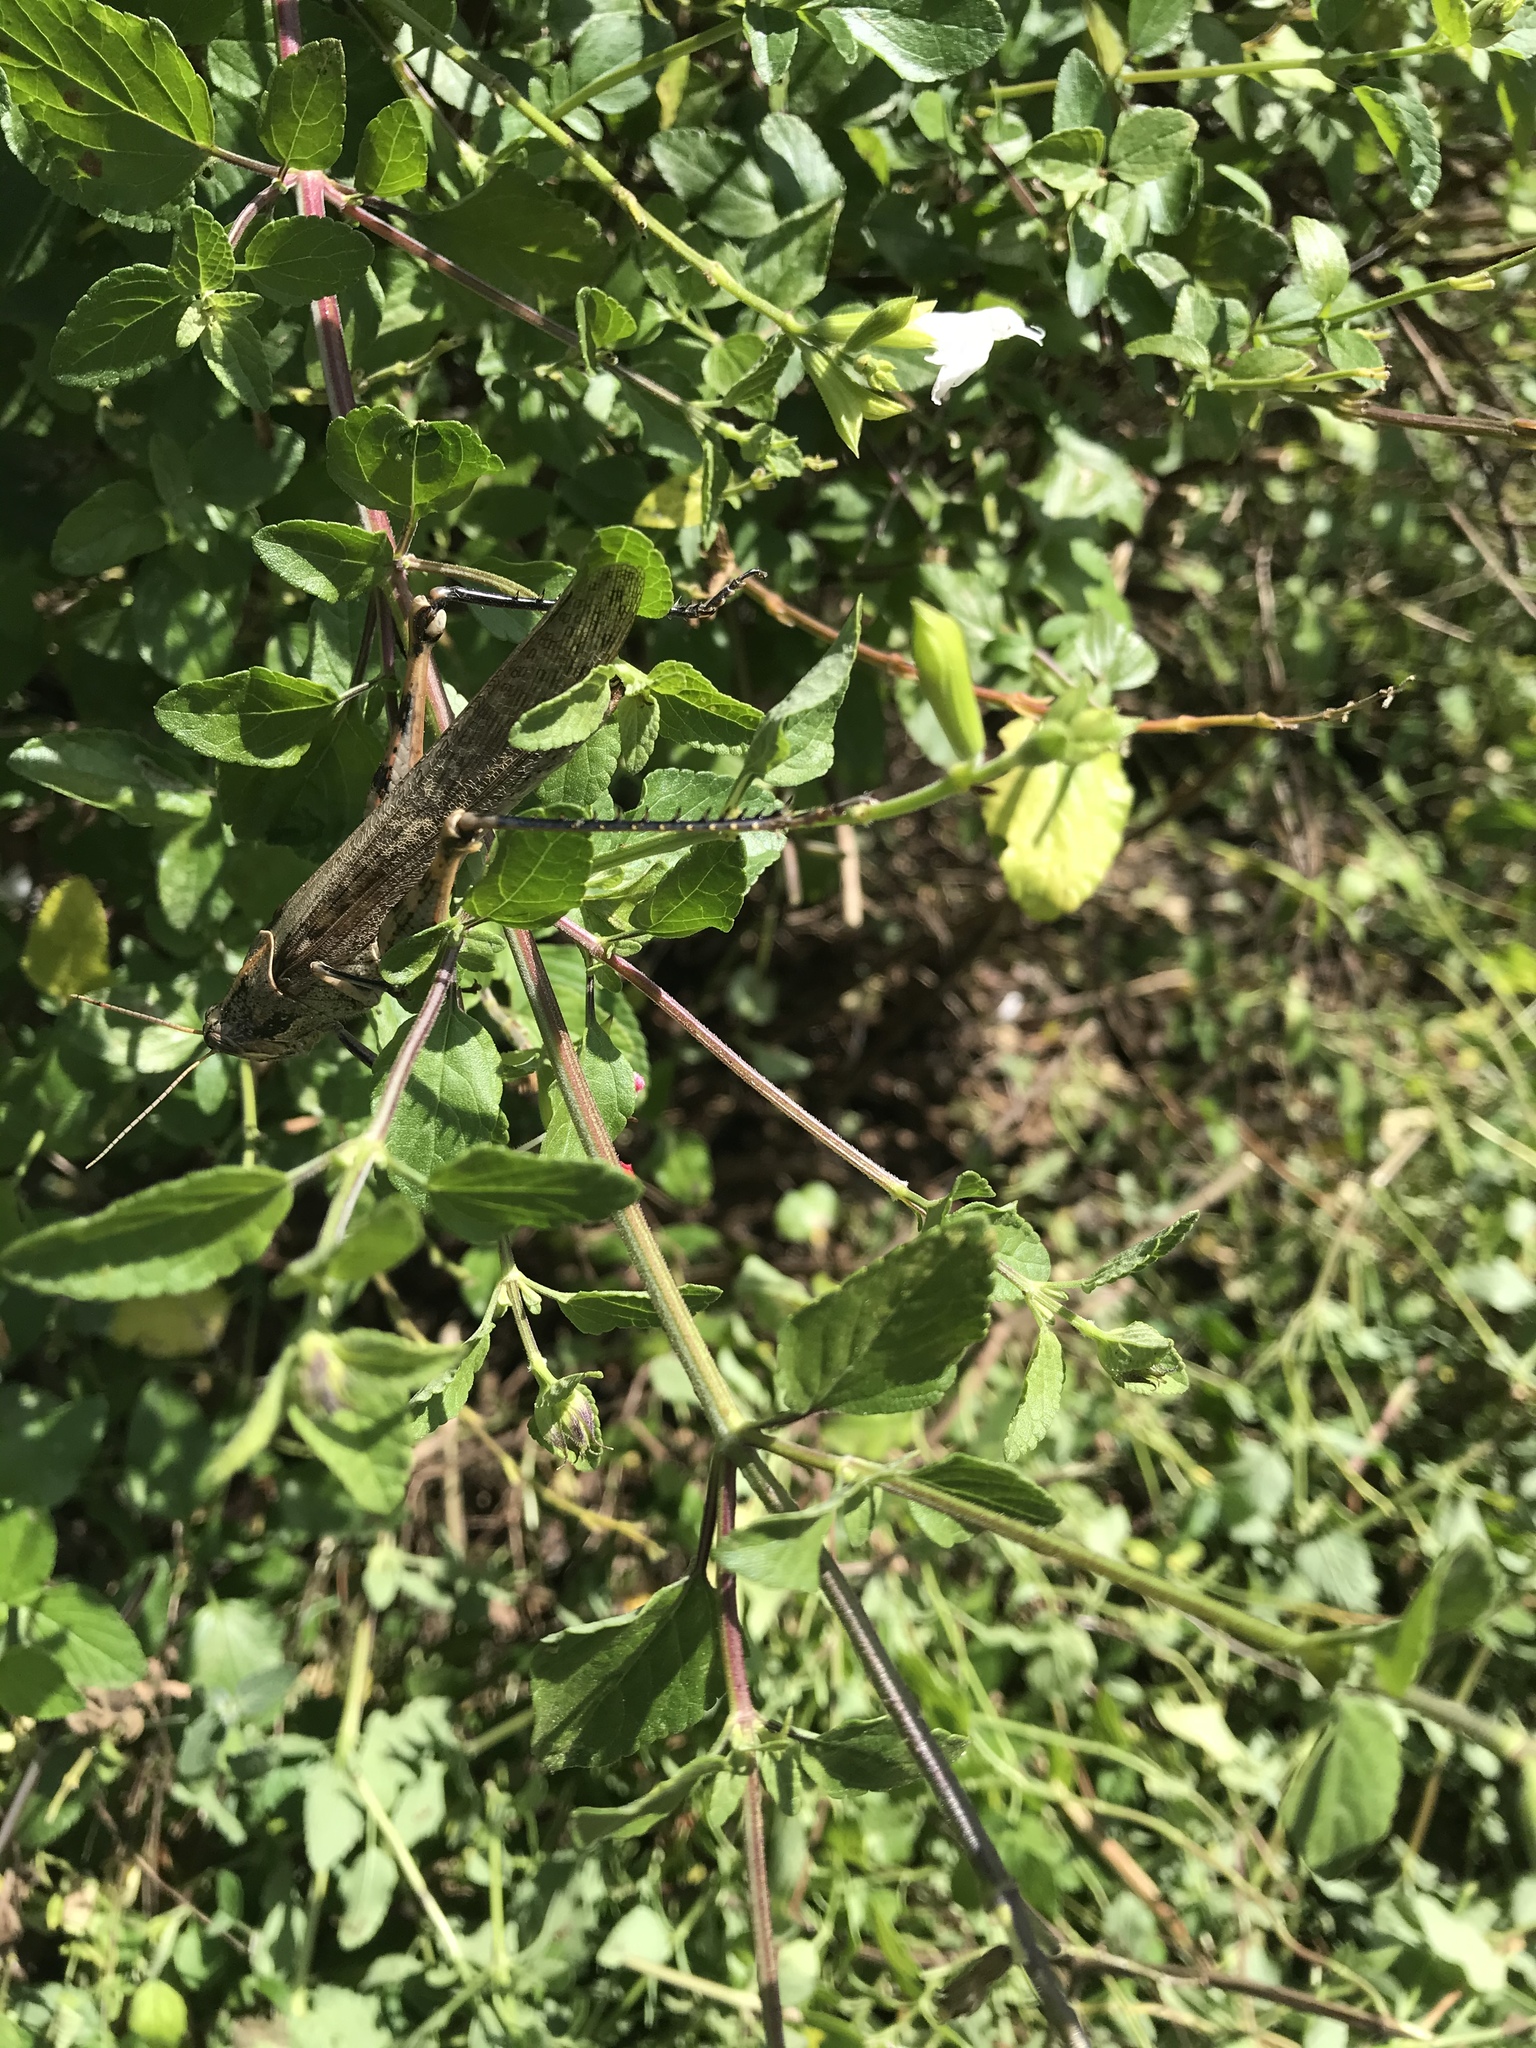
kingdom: Animalia
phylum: Arthropoda
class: Insecta
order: Orthoptera
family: Acrididae
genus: Schistocerca
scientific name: Schistocerca nitens
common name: Vagrant grasshopper
